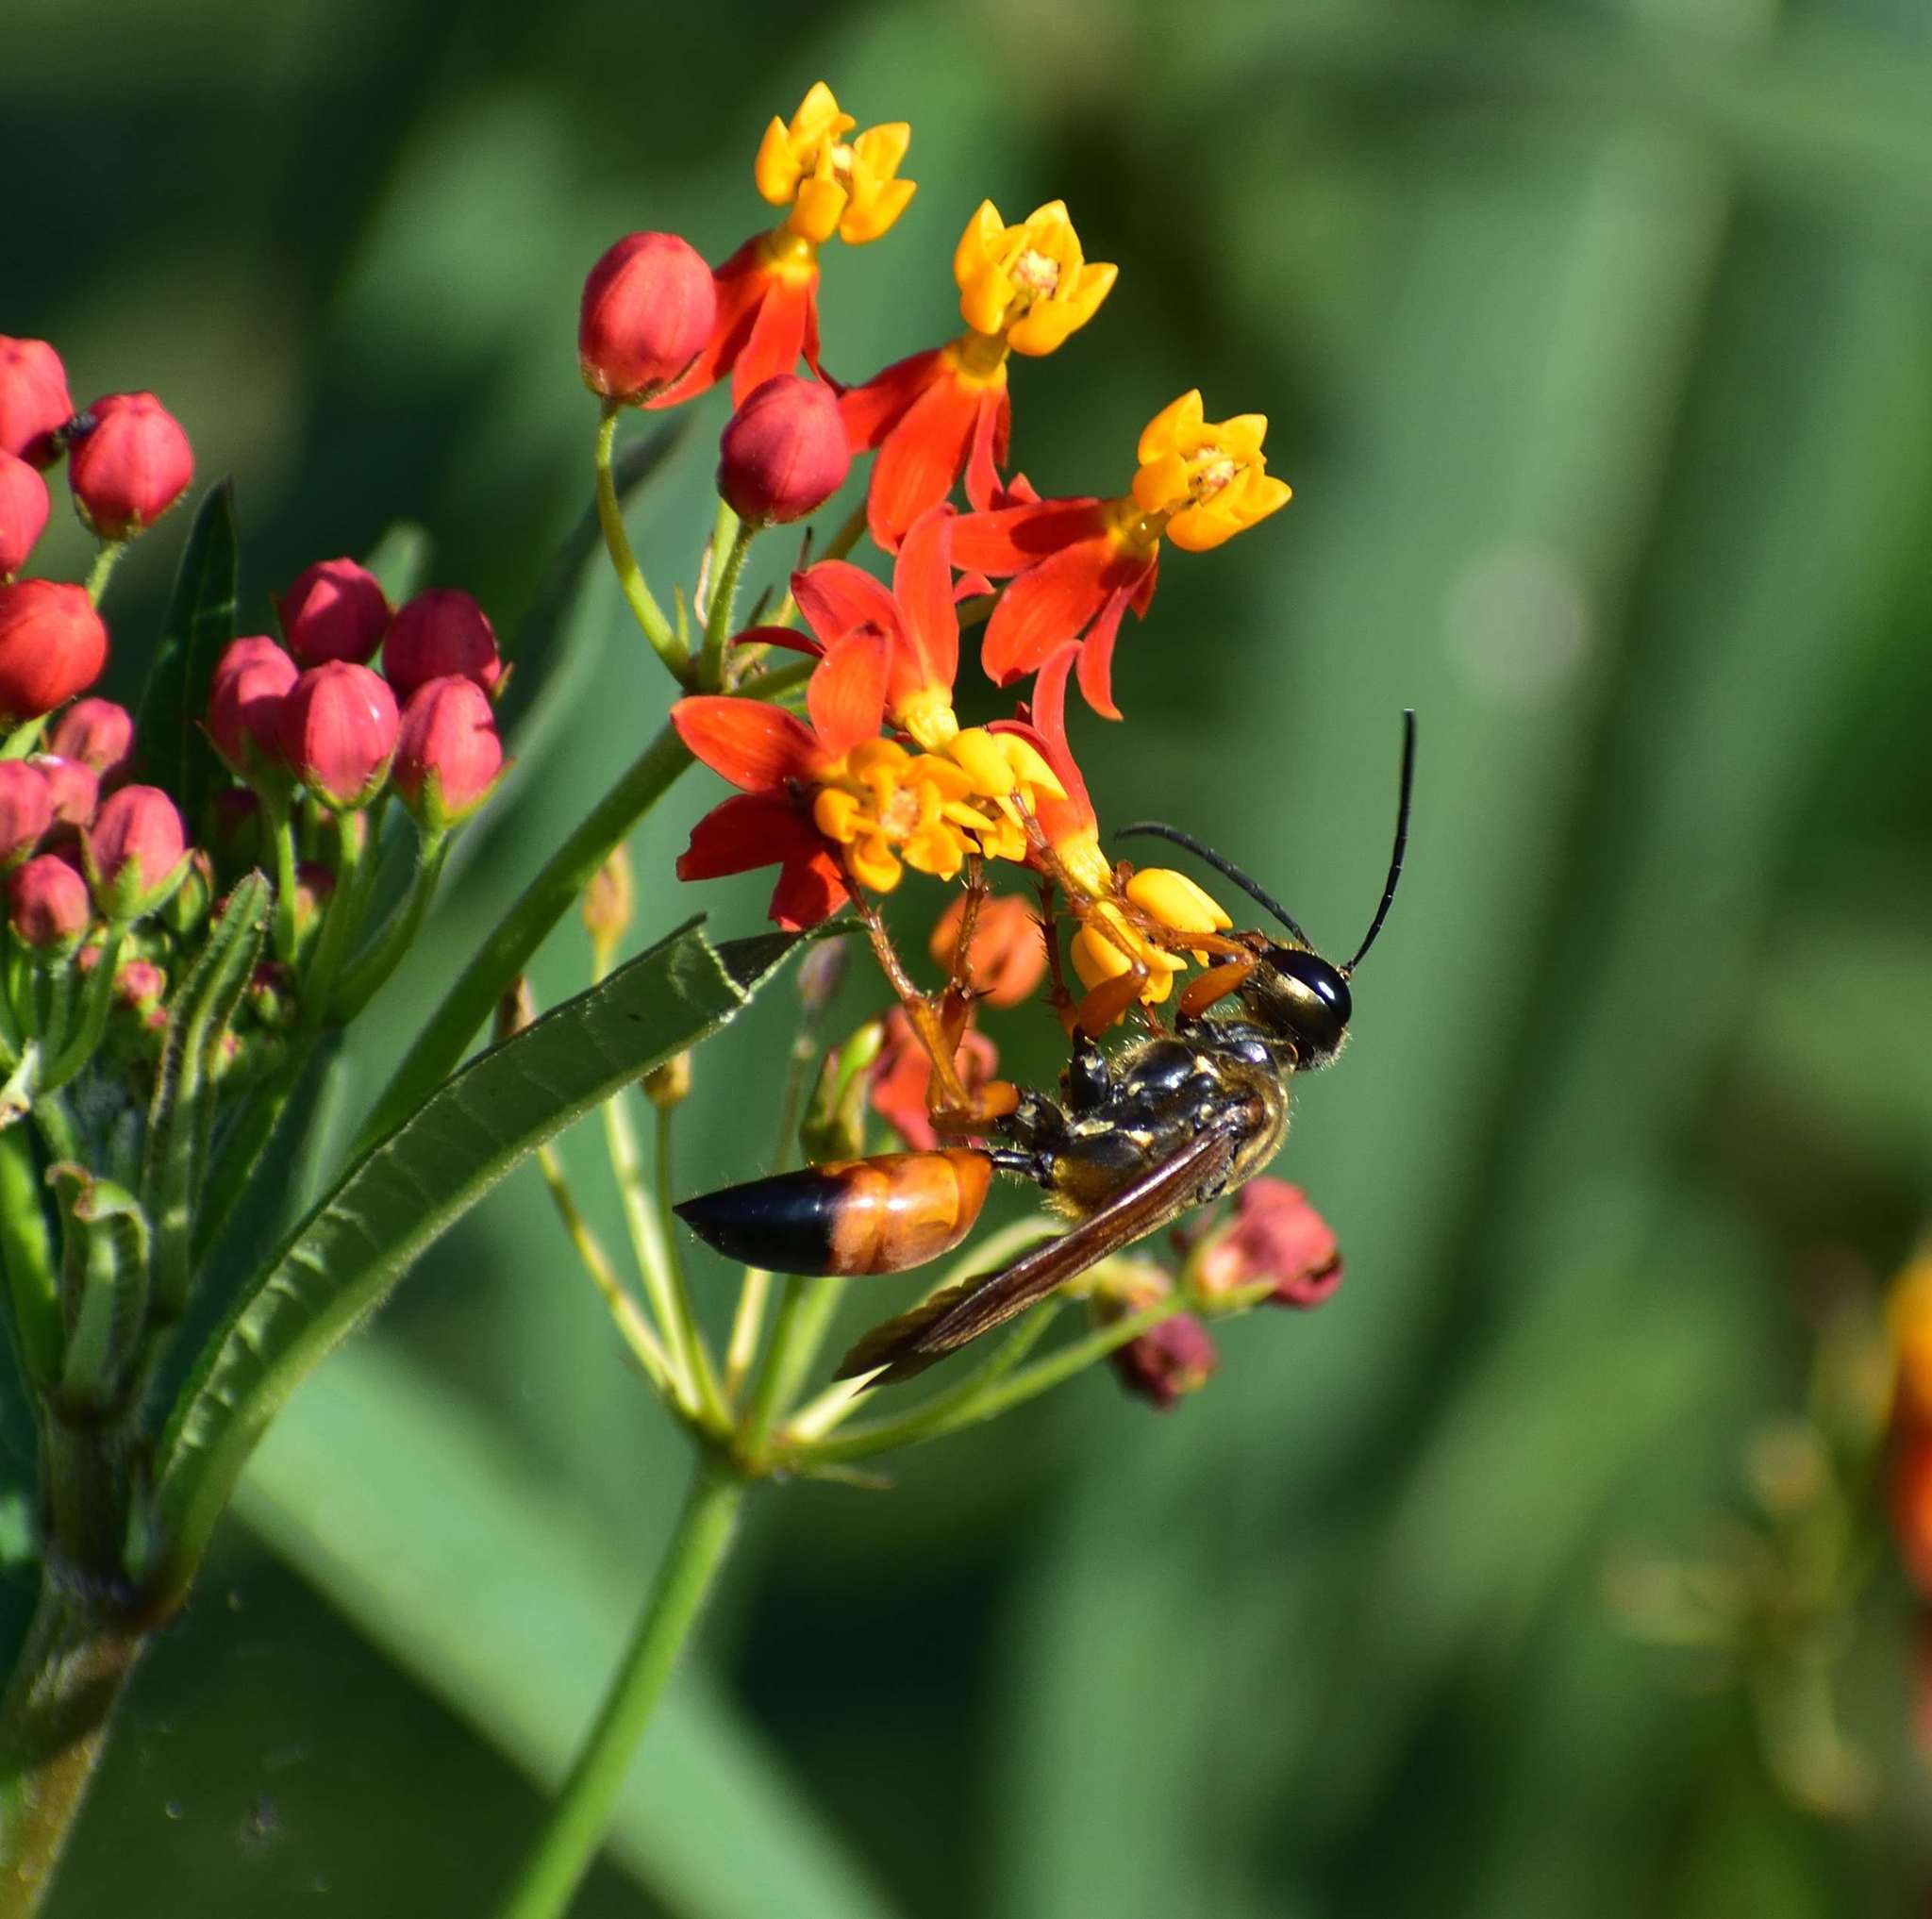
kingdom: Animalia
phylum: Arthropoda
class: Insecta
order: Hymenoptera
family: Sphecidae
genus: Sphex
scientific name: Sphex ichneumoneus
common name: Great golden digger wasp
